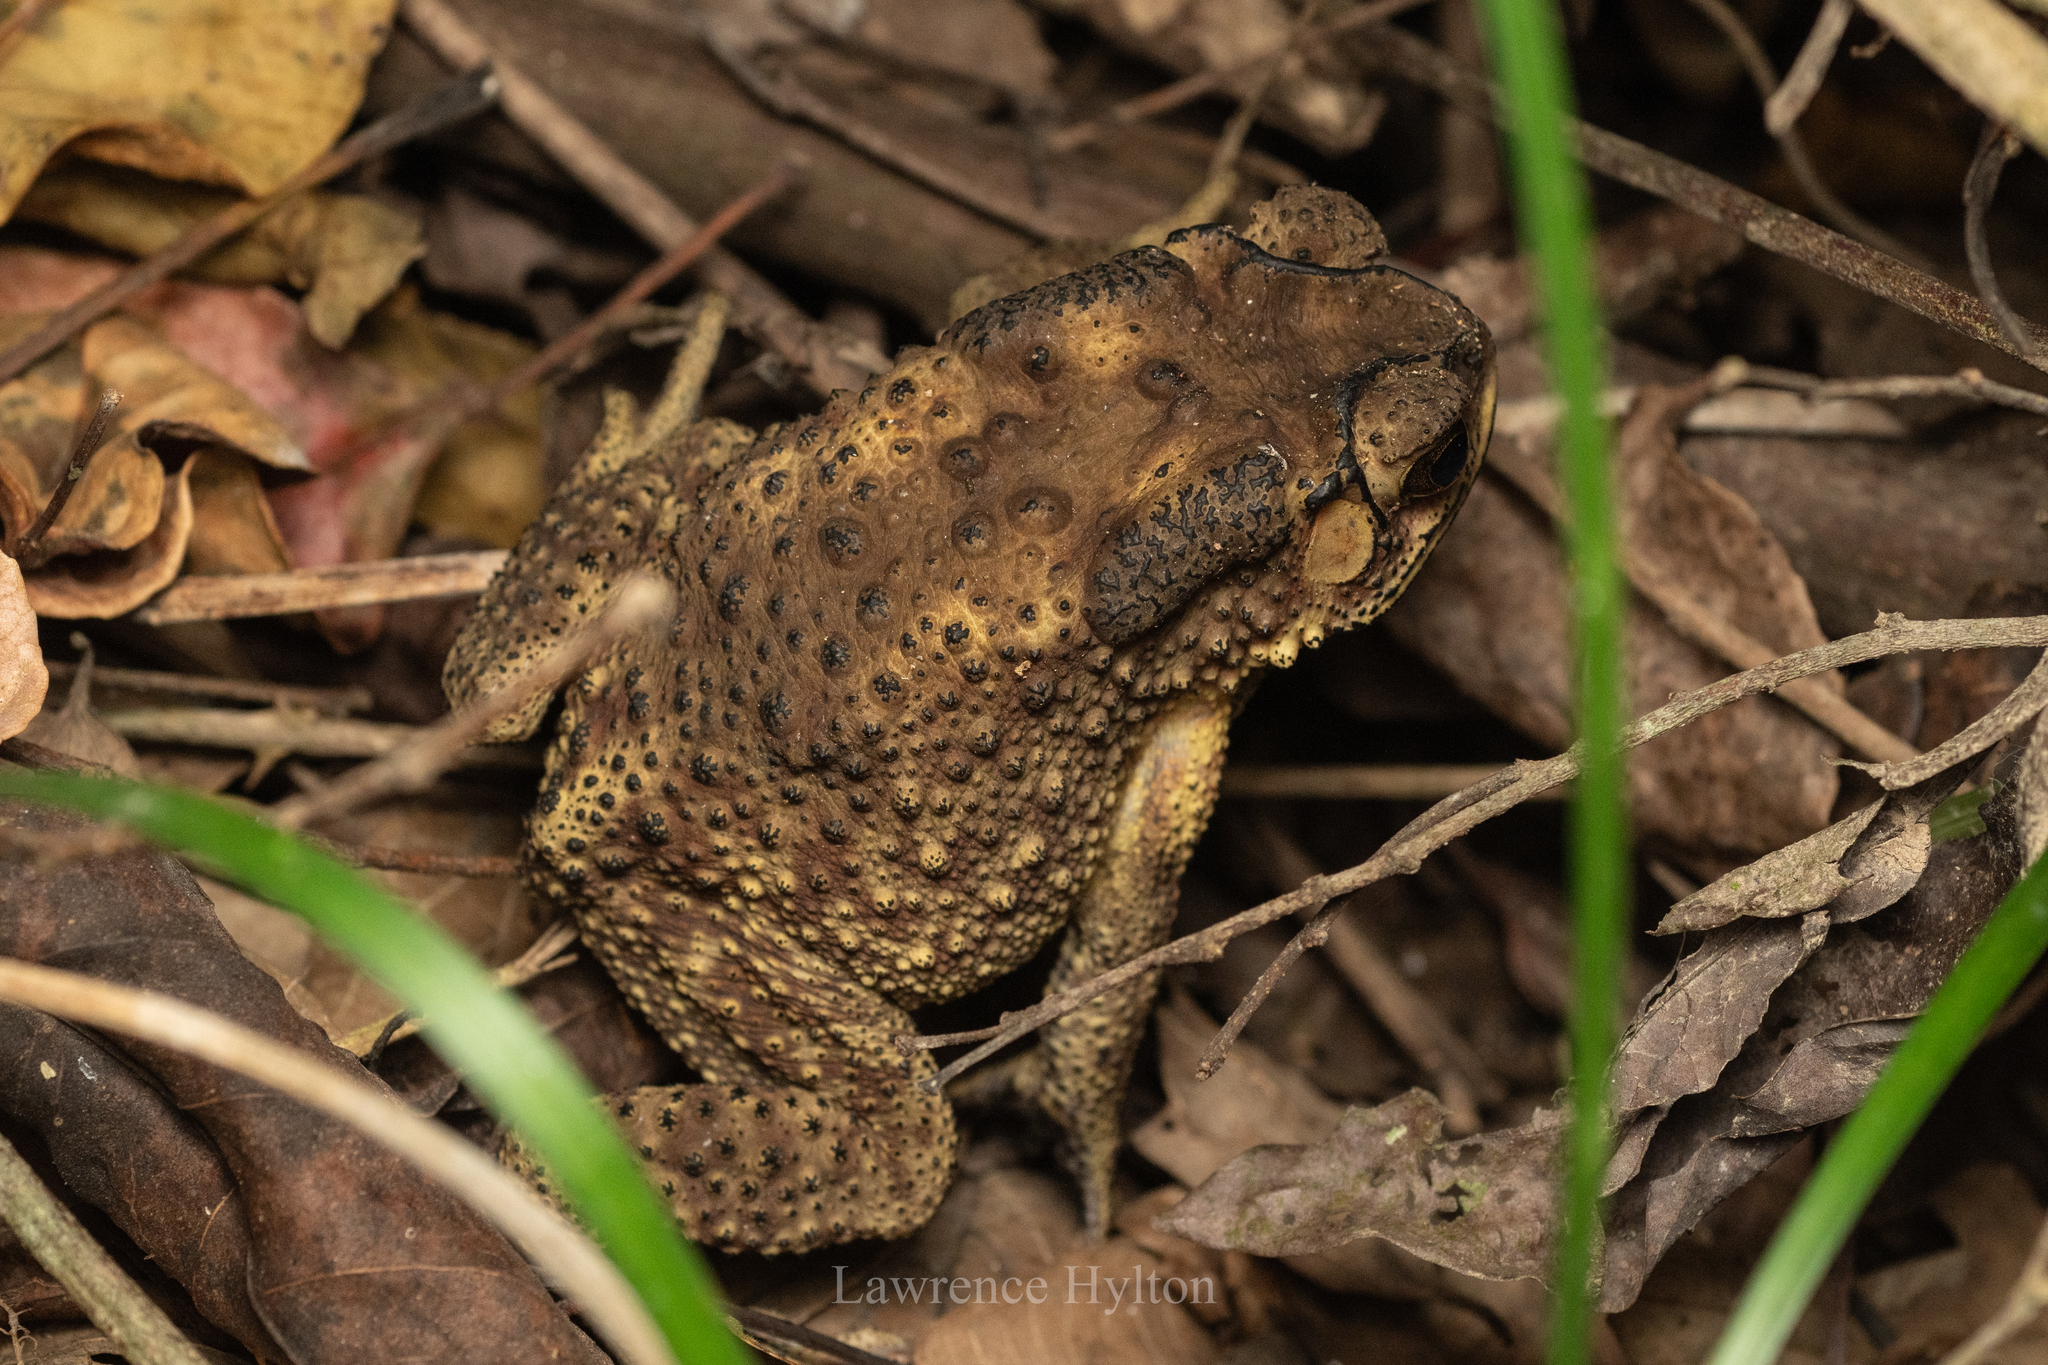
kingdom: Animalia
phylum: Chordata
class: Amphibia
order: Anura
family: Bufonidae
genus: Duttaphrynus
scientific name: Duttaphrynus melanostictus
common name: Common sunda toad
